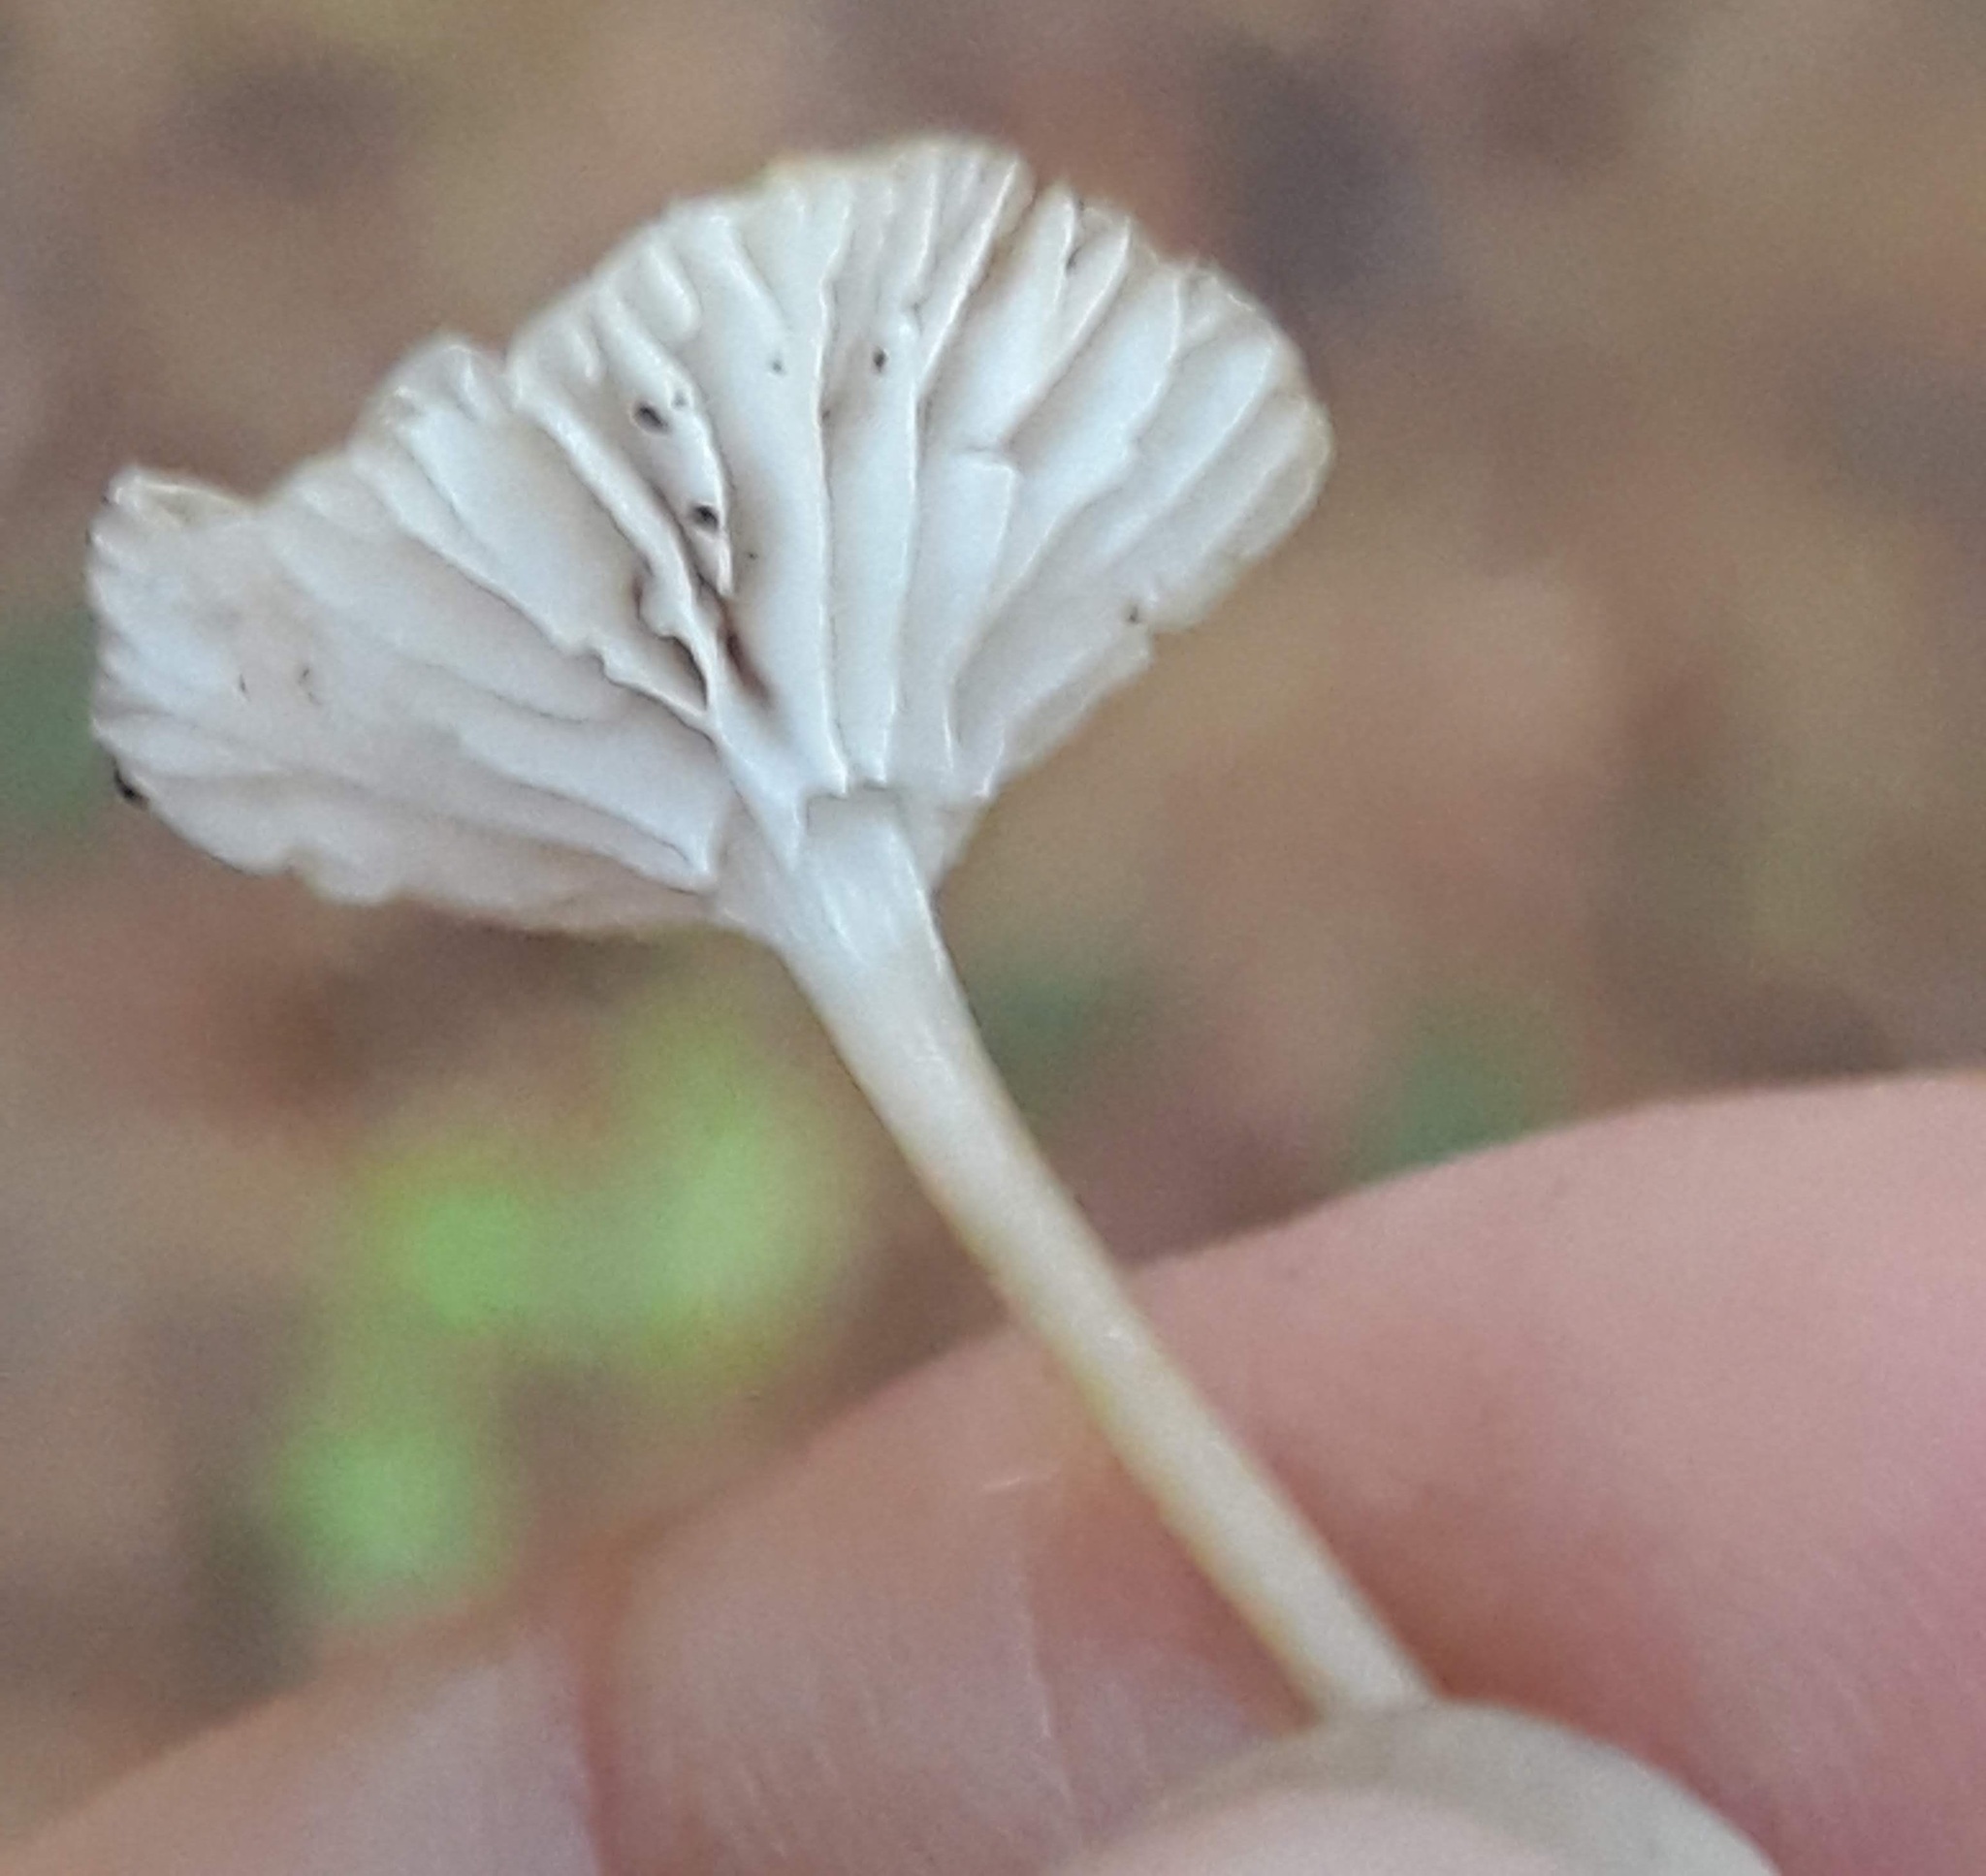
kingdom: Fungi
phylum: Basidiomycota
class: Agaricomycetes
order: Agaricales
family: Mycenaceae
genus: Mycena
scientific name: Mycena clavicularis
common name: Needle bonnet
